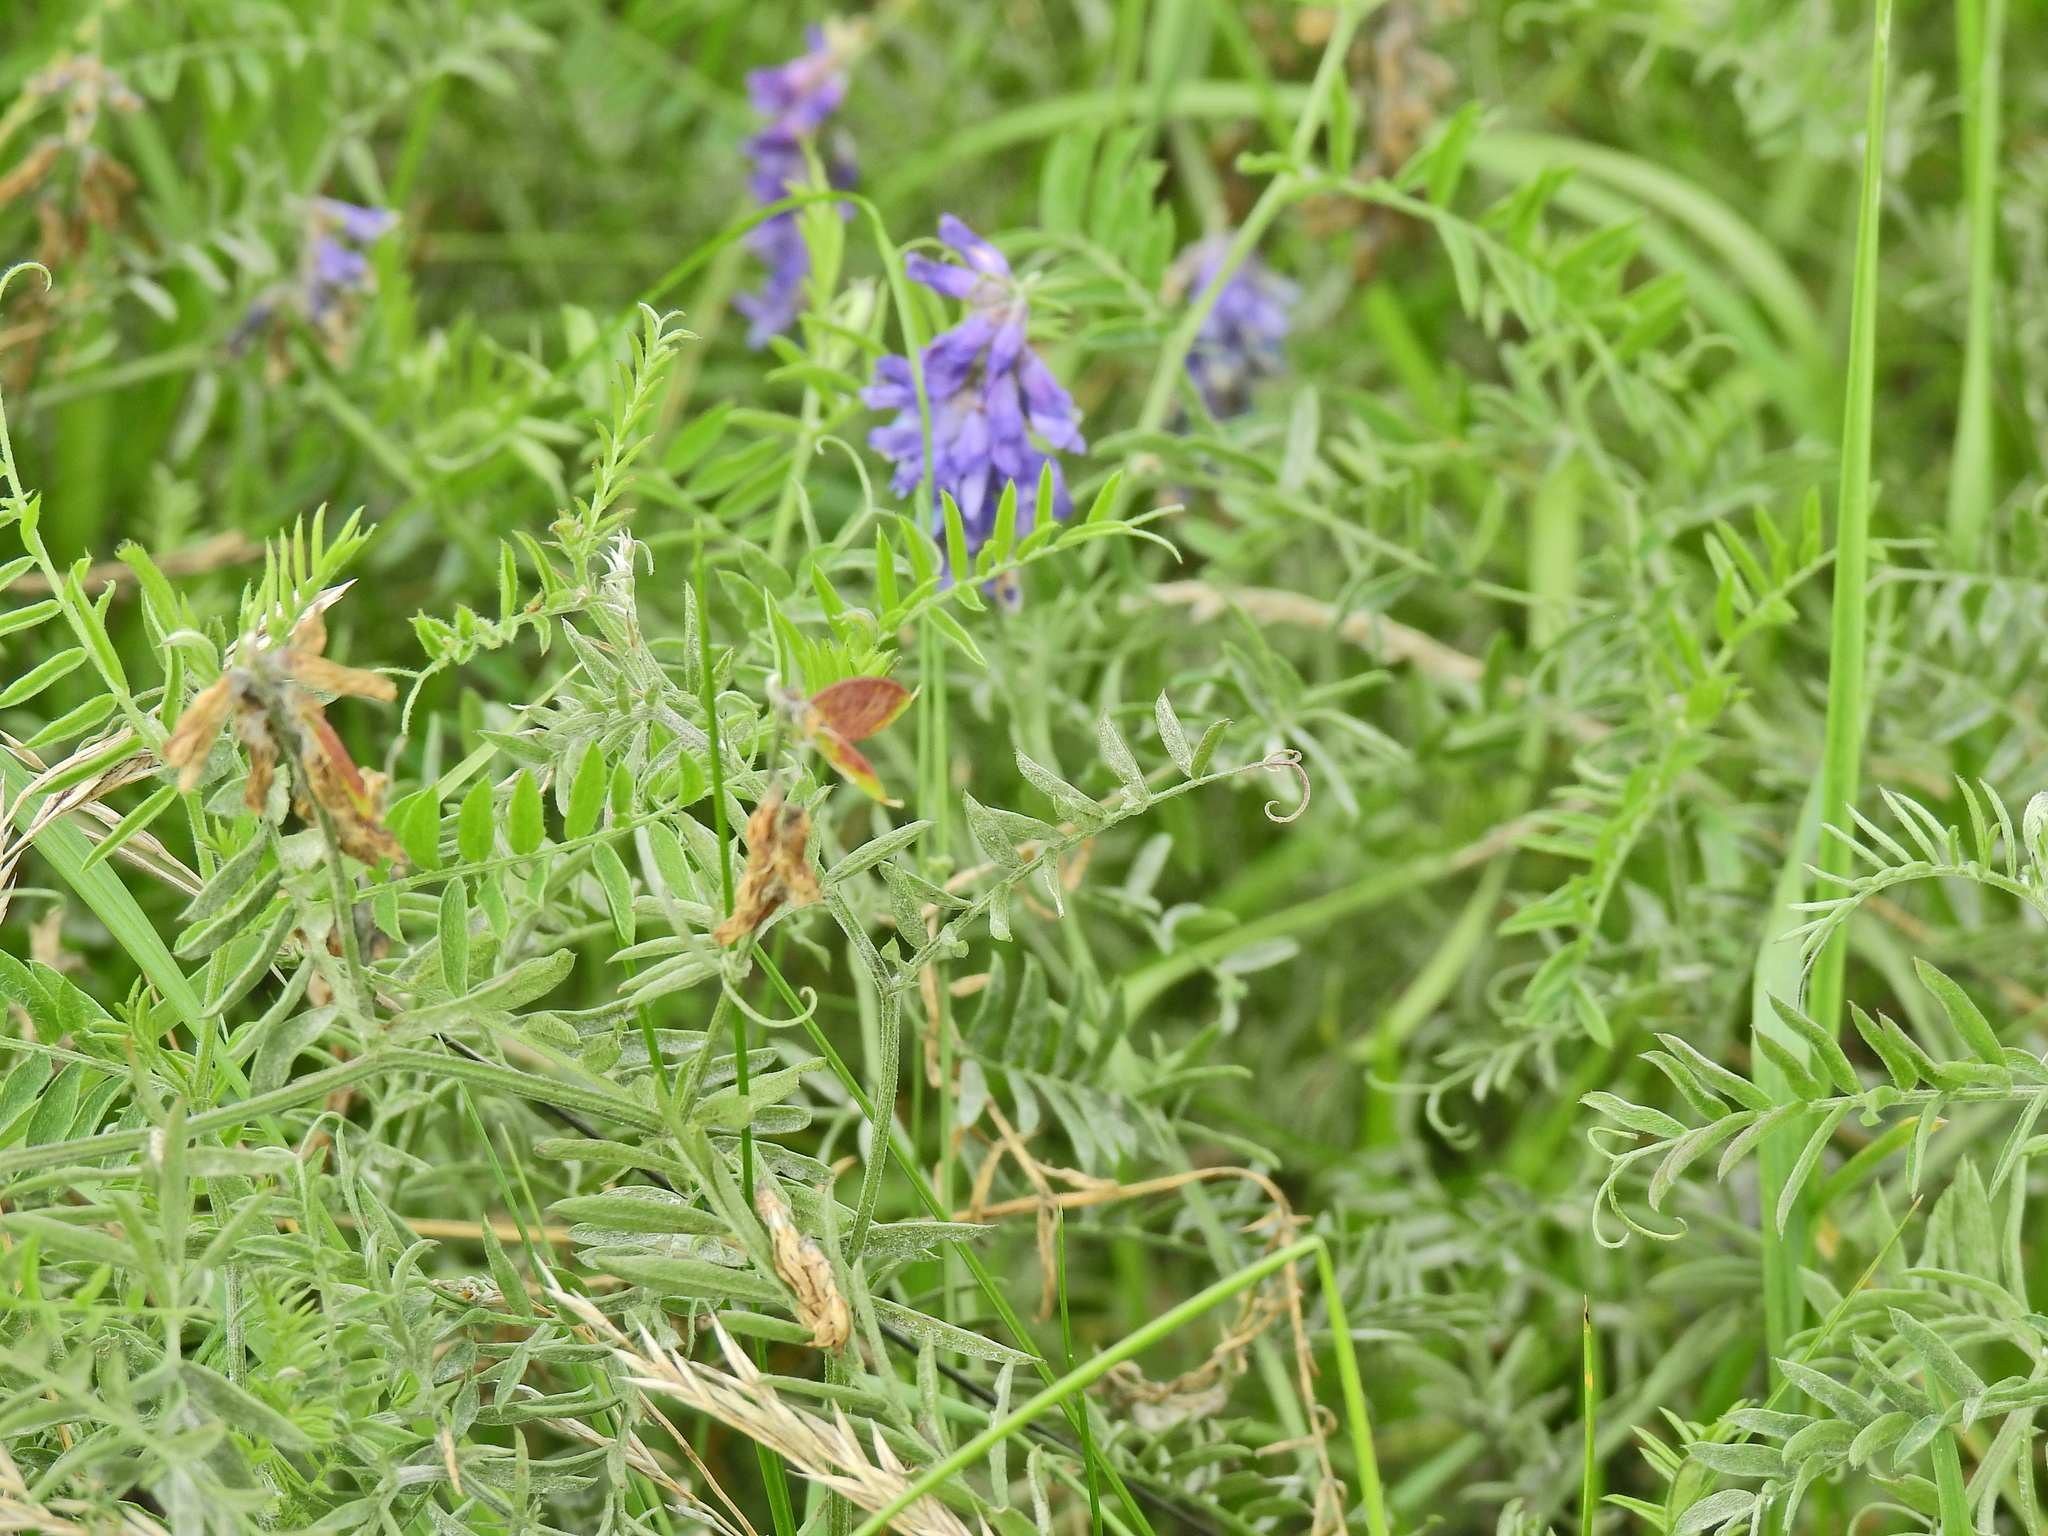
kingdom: Plantae
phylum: Tracheophyta
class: Magnoliopsida
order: Fabales
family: Fabaceae
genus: Vicia
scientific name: Vicia cracca
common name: Bird vetch
